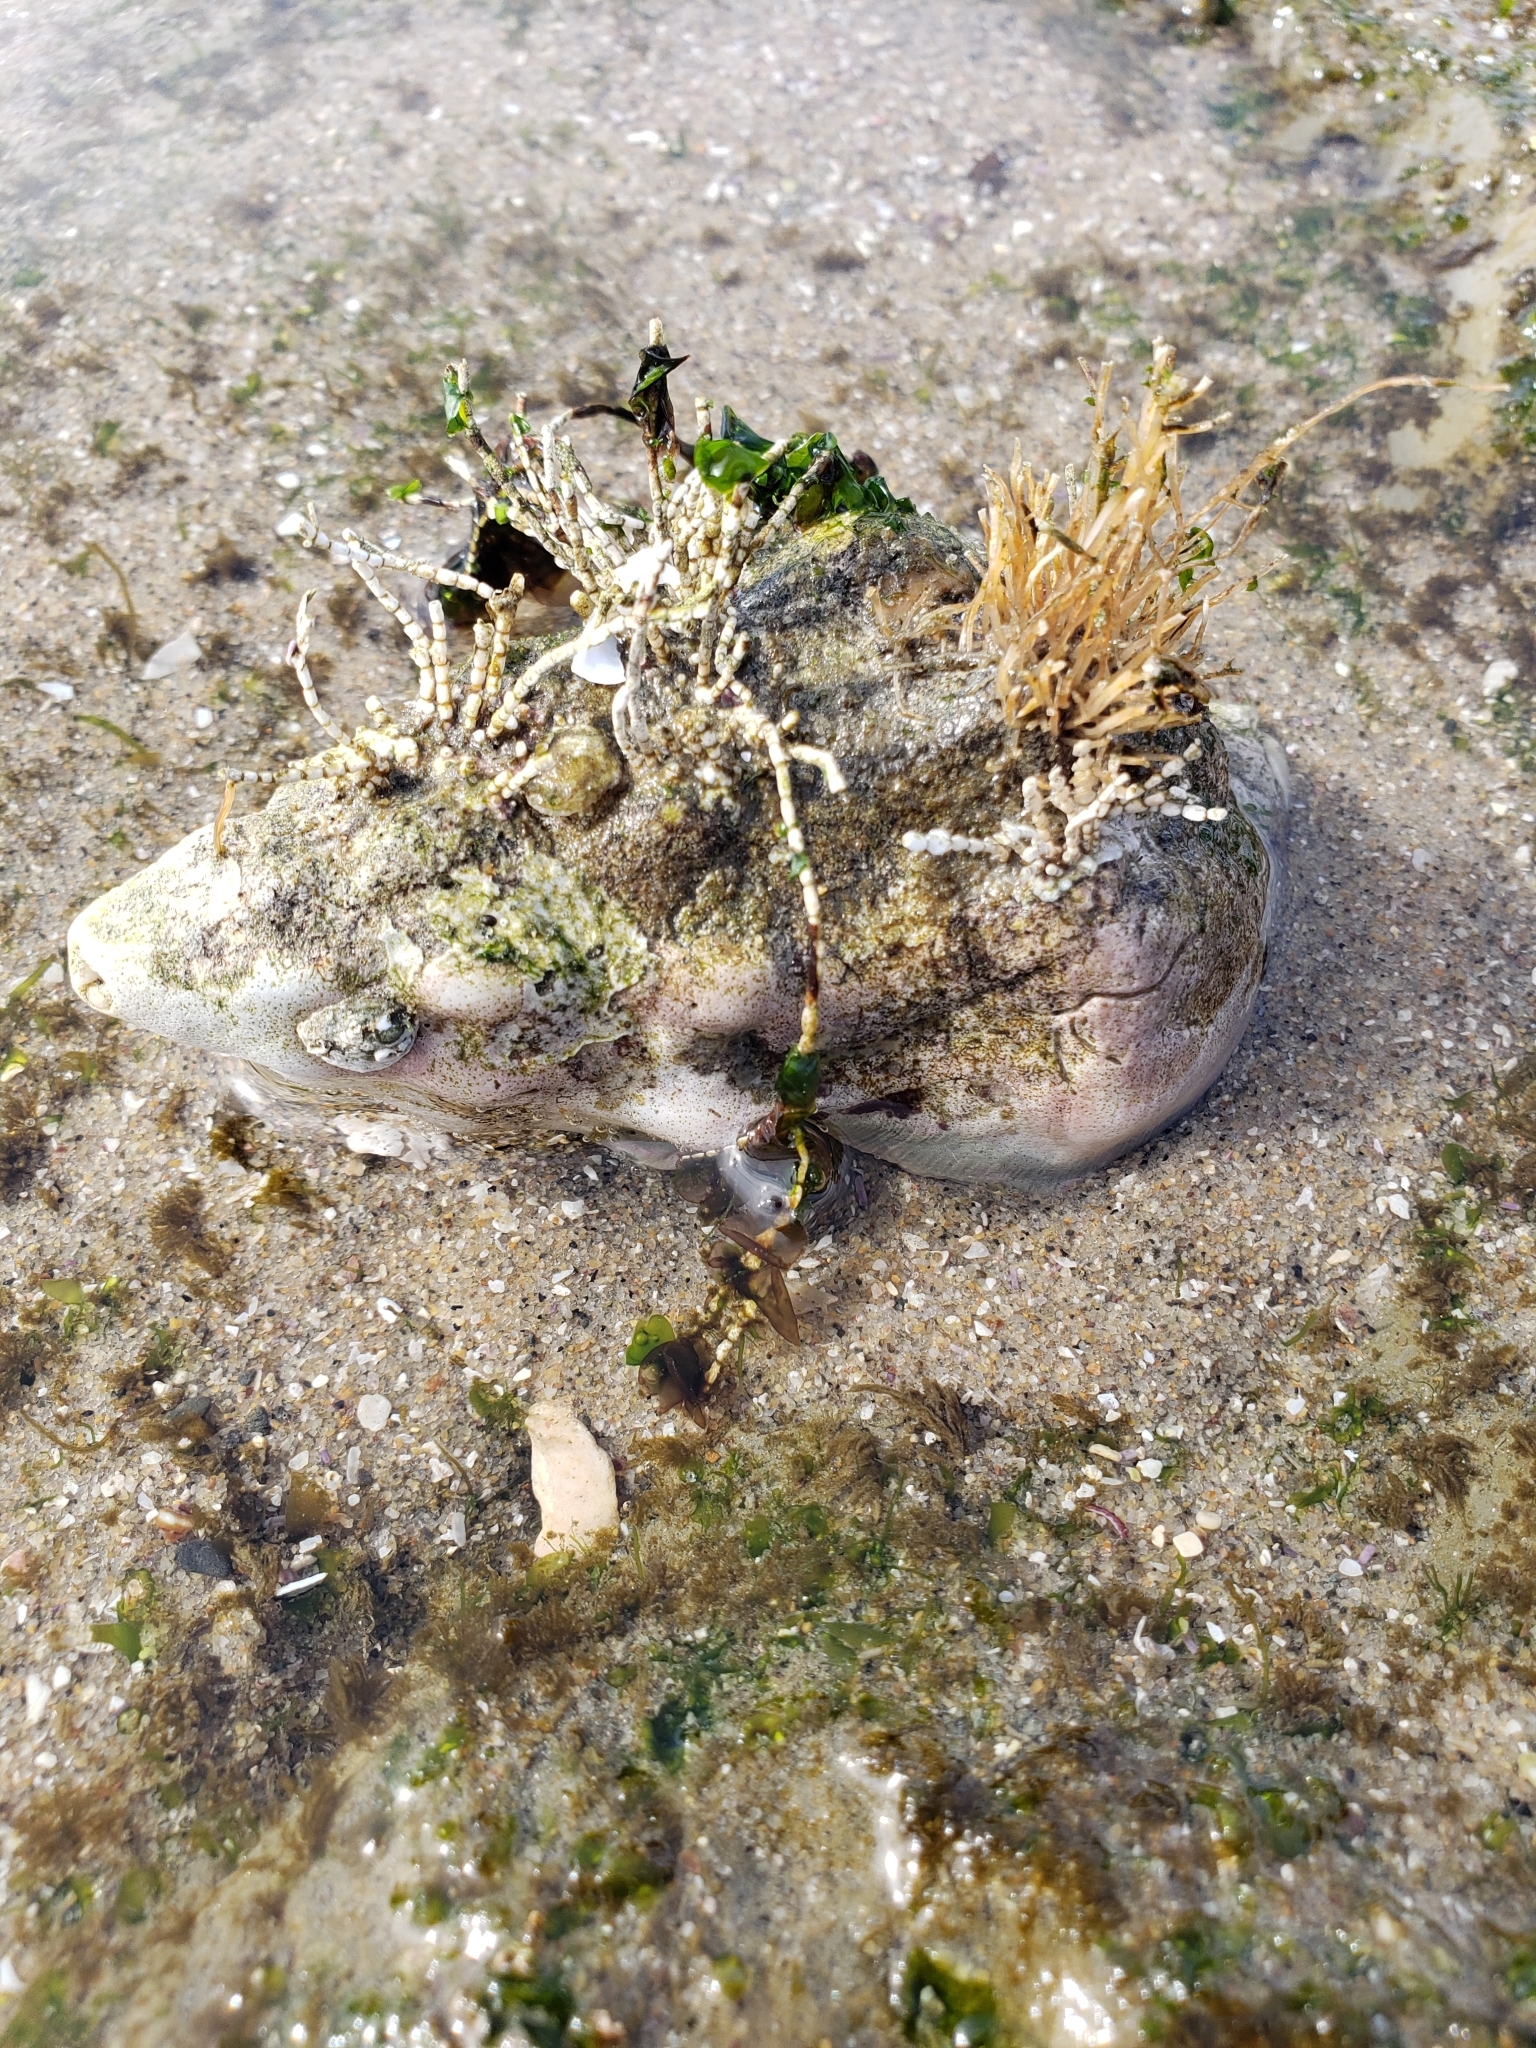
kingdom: Animalia
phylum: Mollusca
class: Gastropoda
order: Neogastropoda
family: Austrosiphonidae
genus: Kelletia
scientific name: Kelletia kelletii
